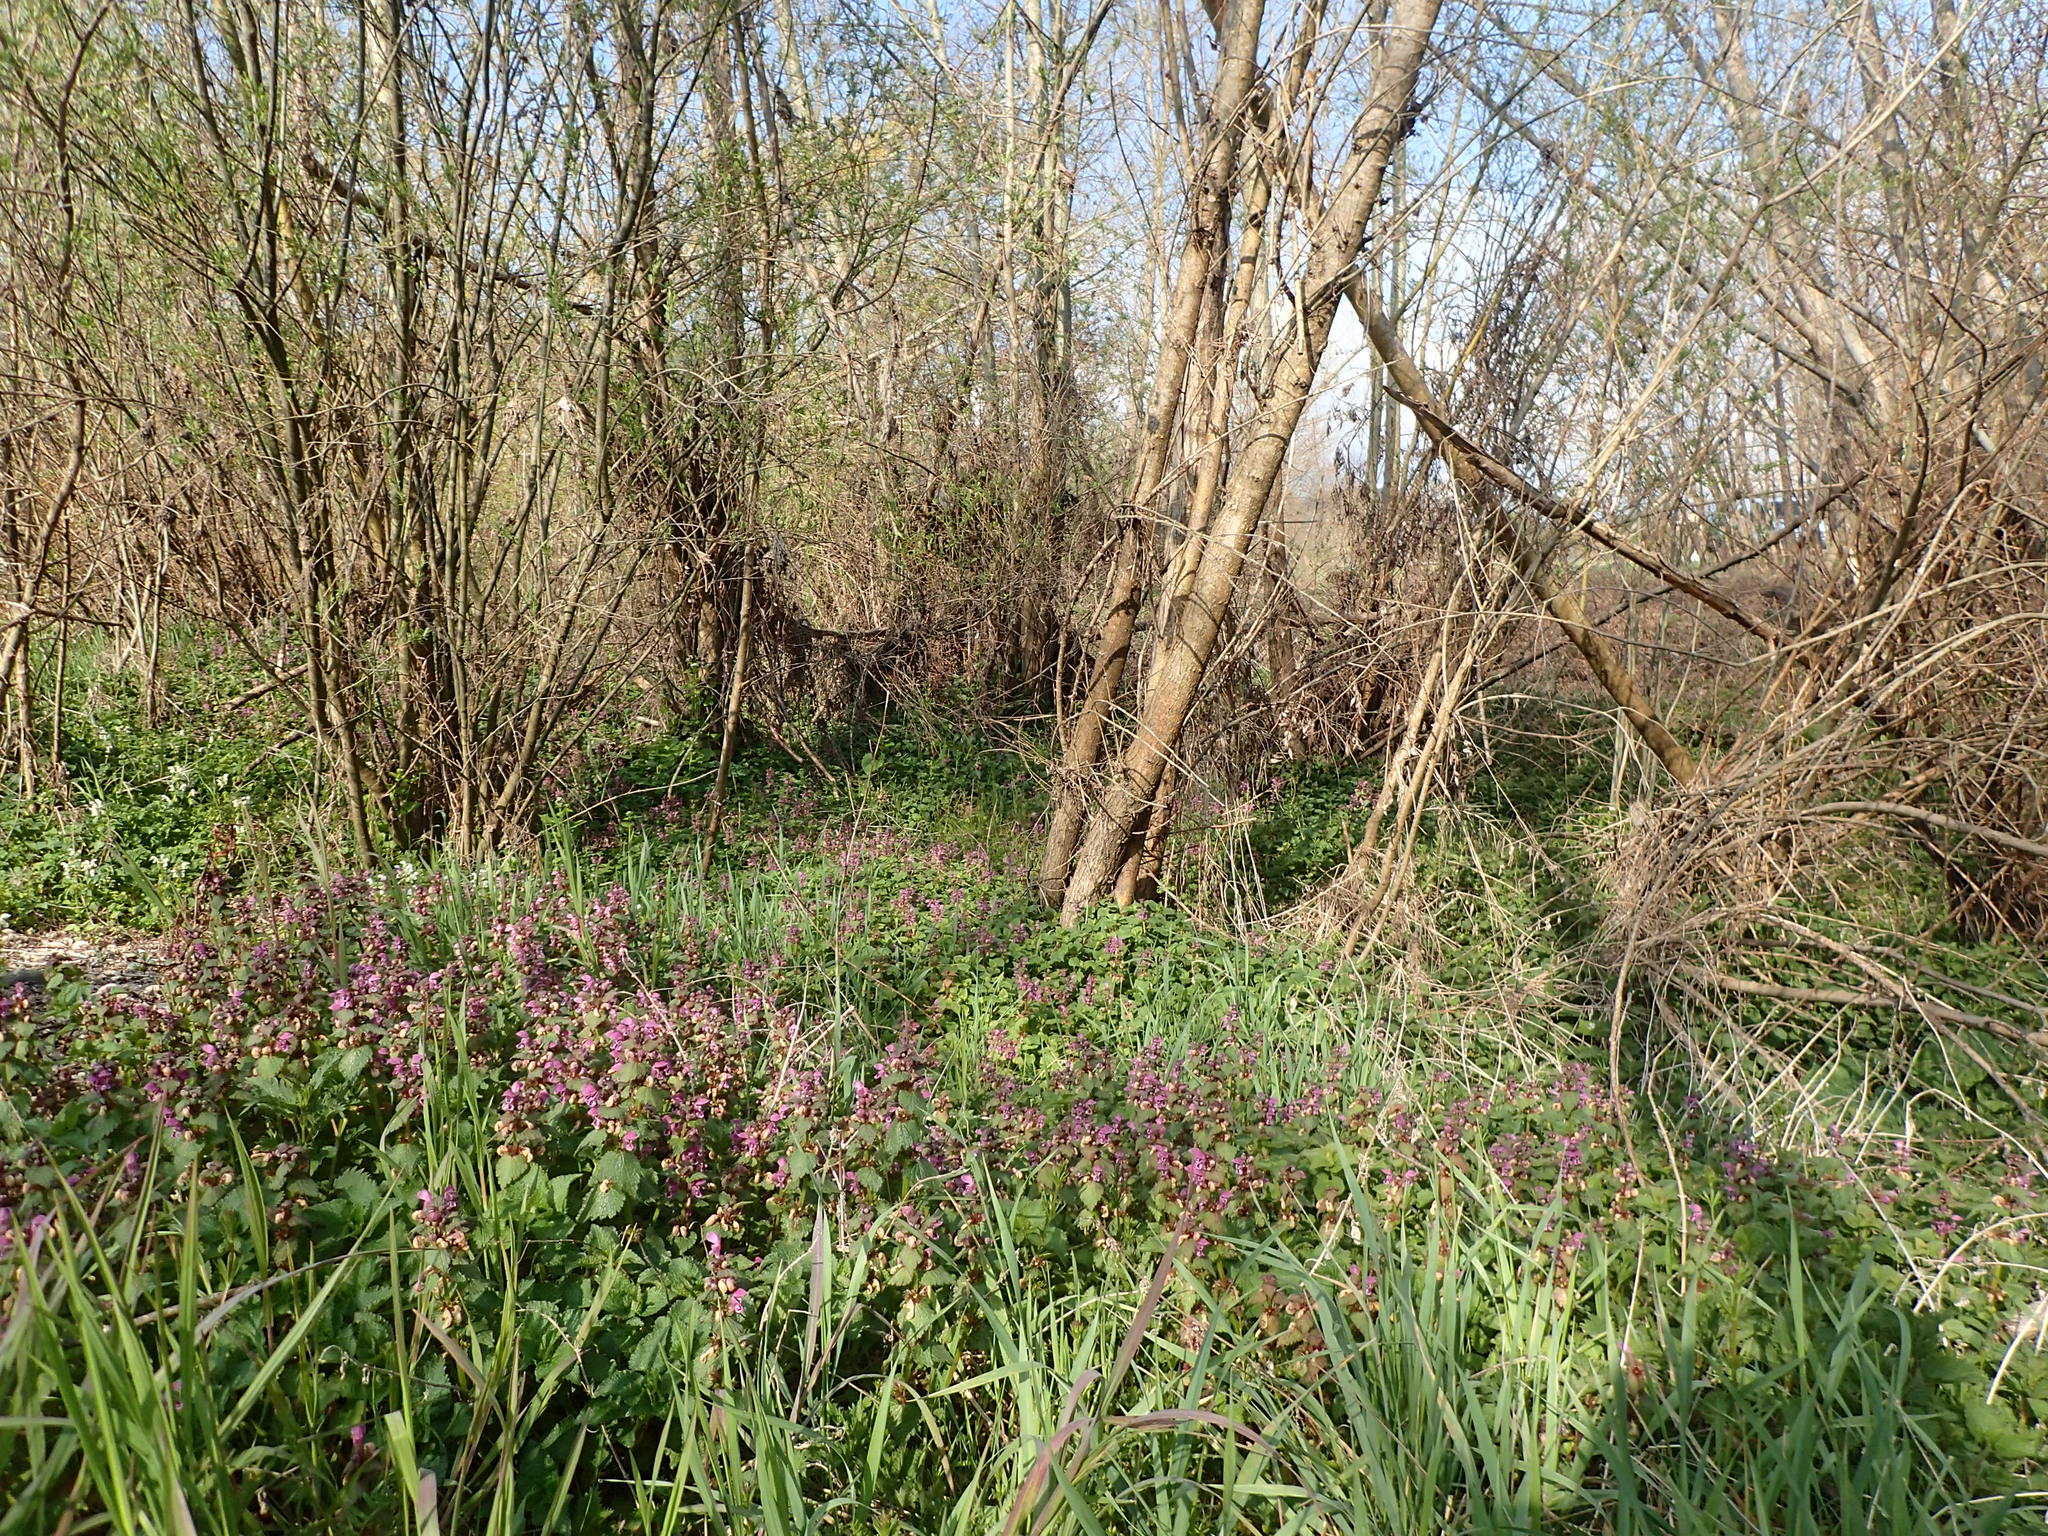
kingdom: Plantae
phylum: Tracheophyta
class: Magnoliopsida
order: Lamiales
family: Lamiaceae
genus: Lamium
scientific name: Lamium maculatum
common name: Spotted dead-nettle
